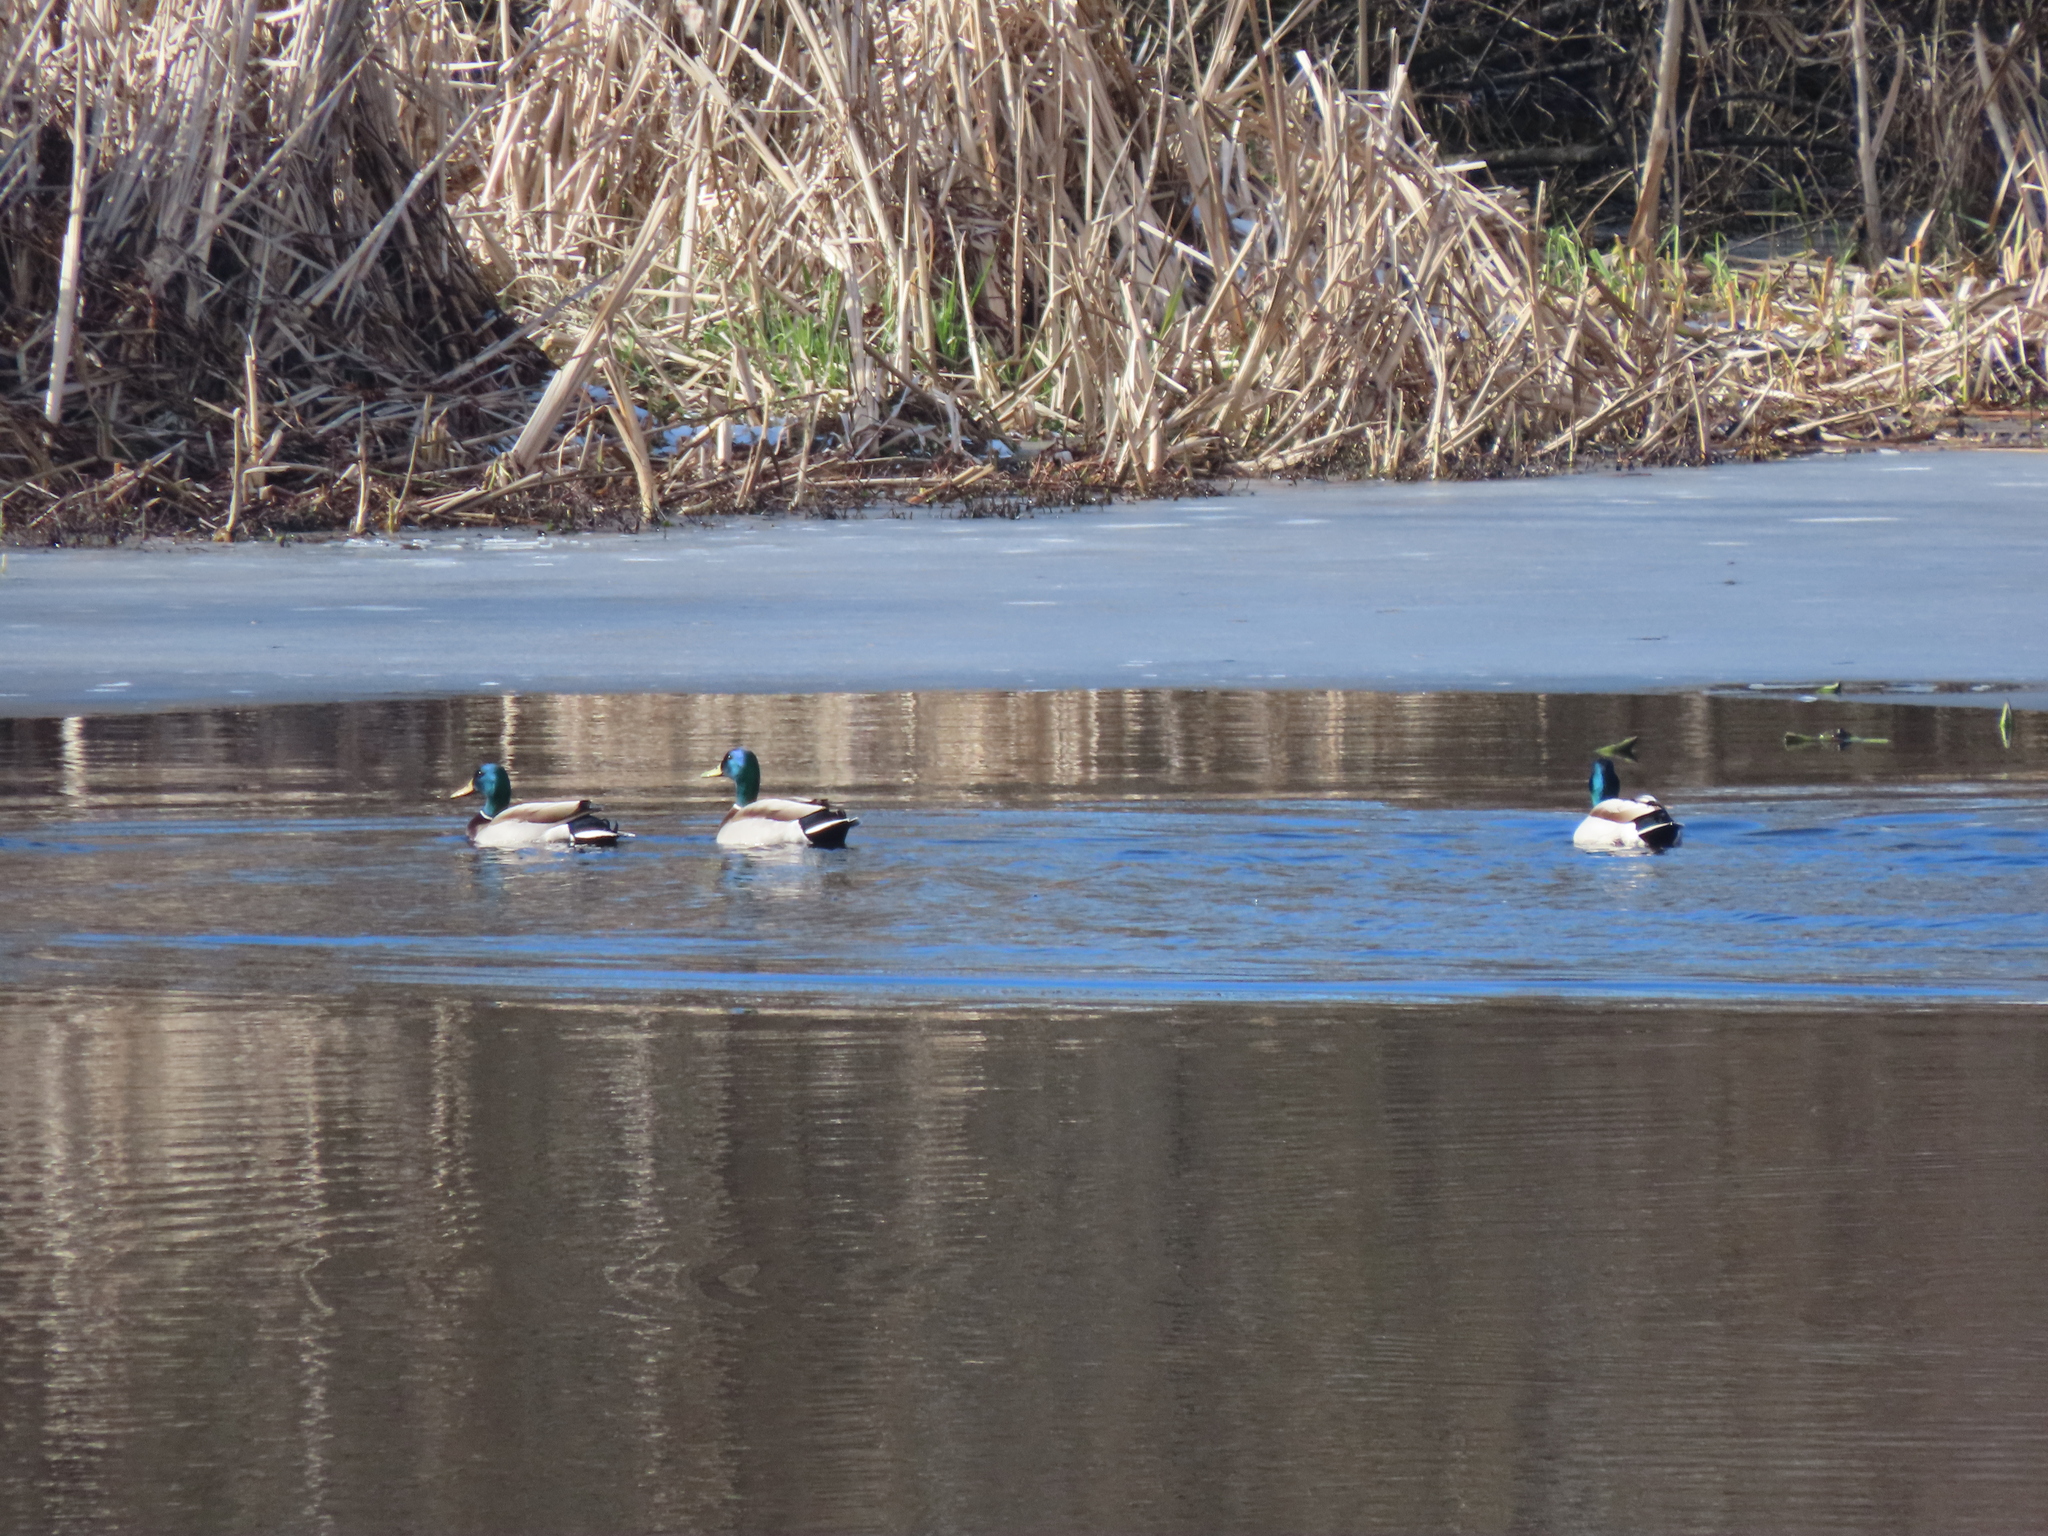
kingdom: Animalia
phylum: Chordata
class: Aves
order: Anseriformes
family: Anatidae
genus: Anas
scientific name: Anas platyrhynchos
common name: Mallard
